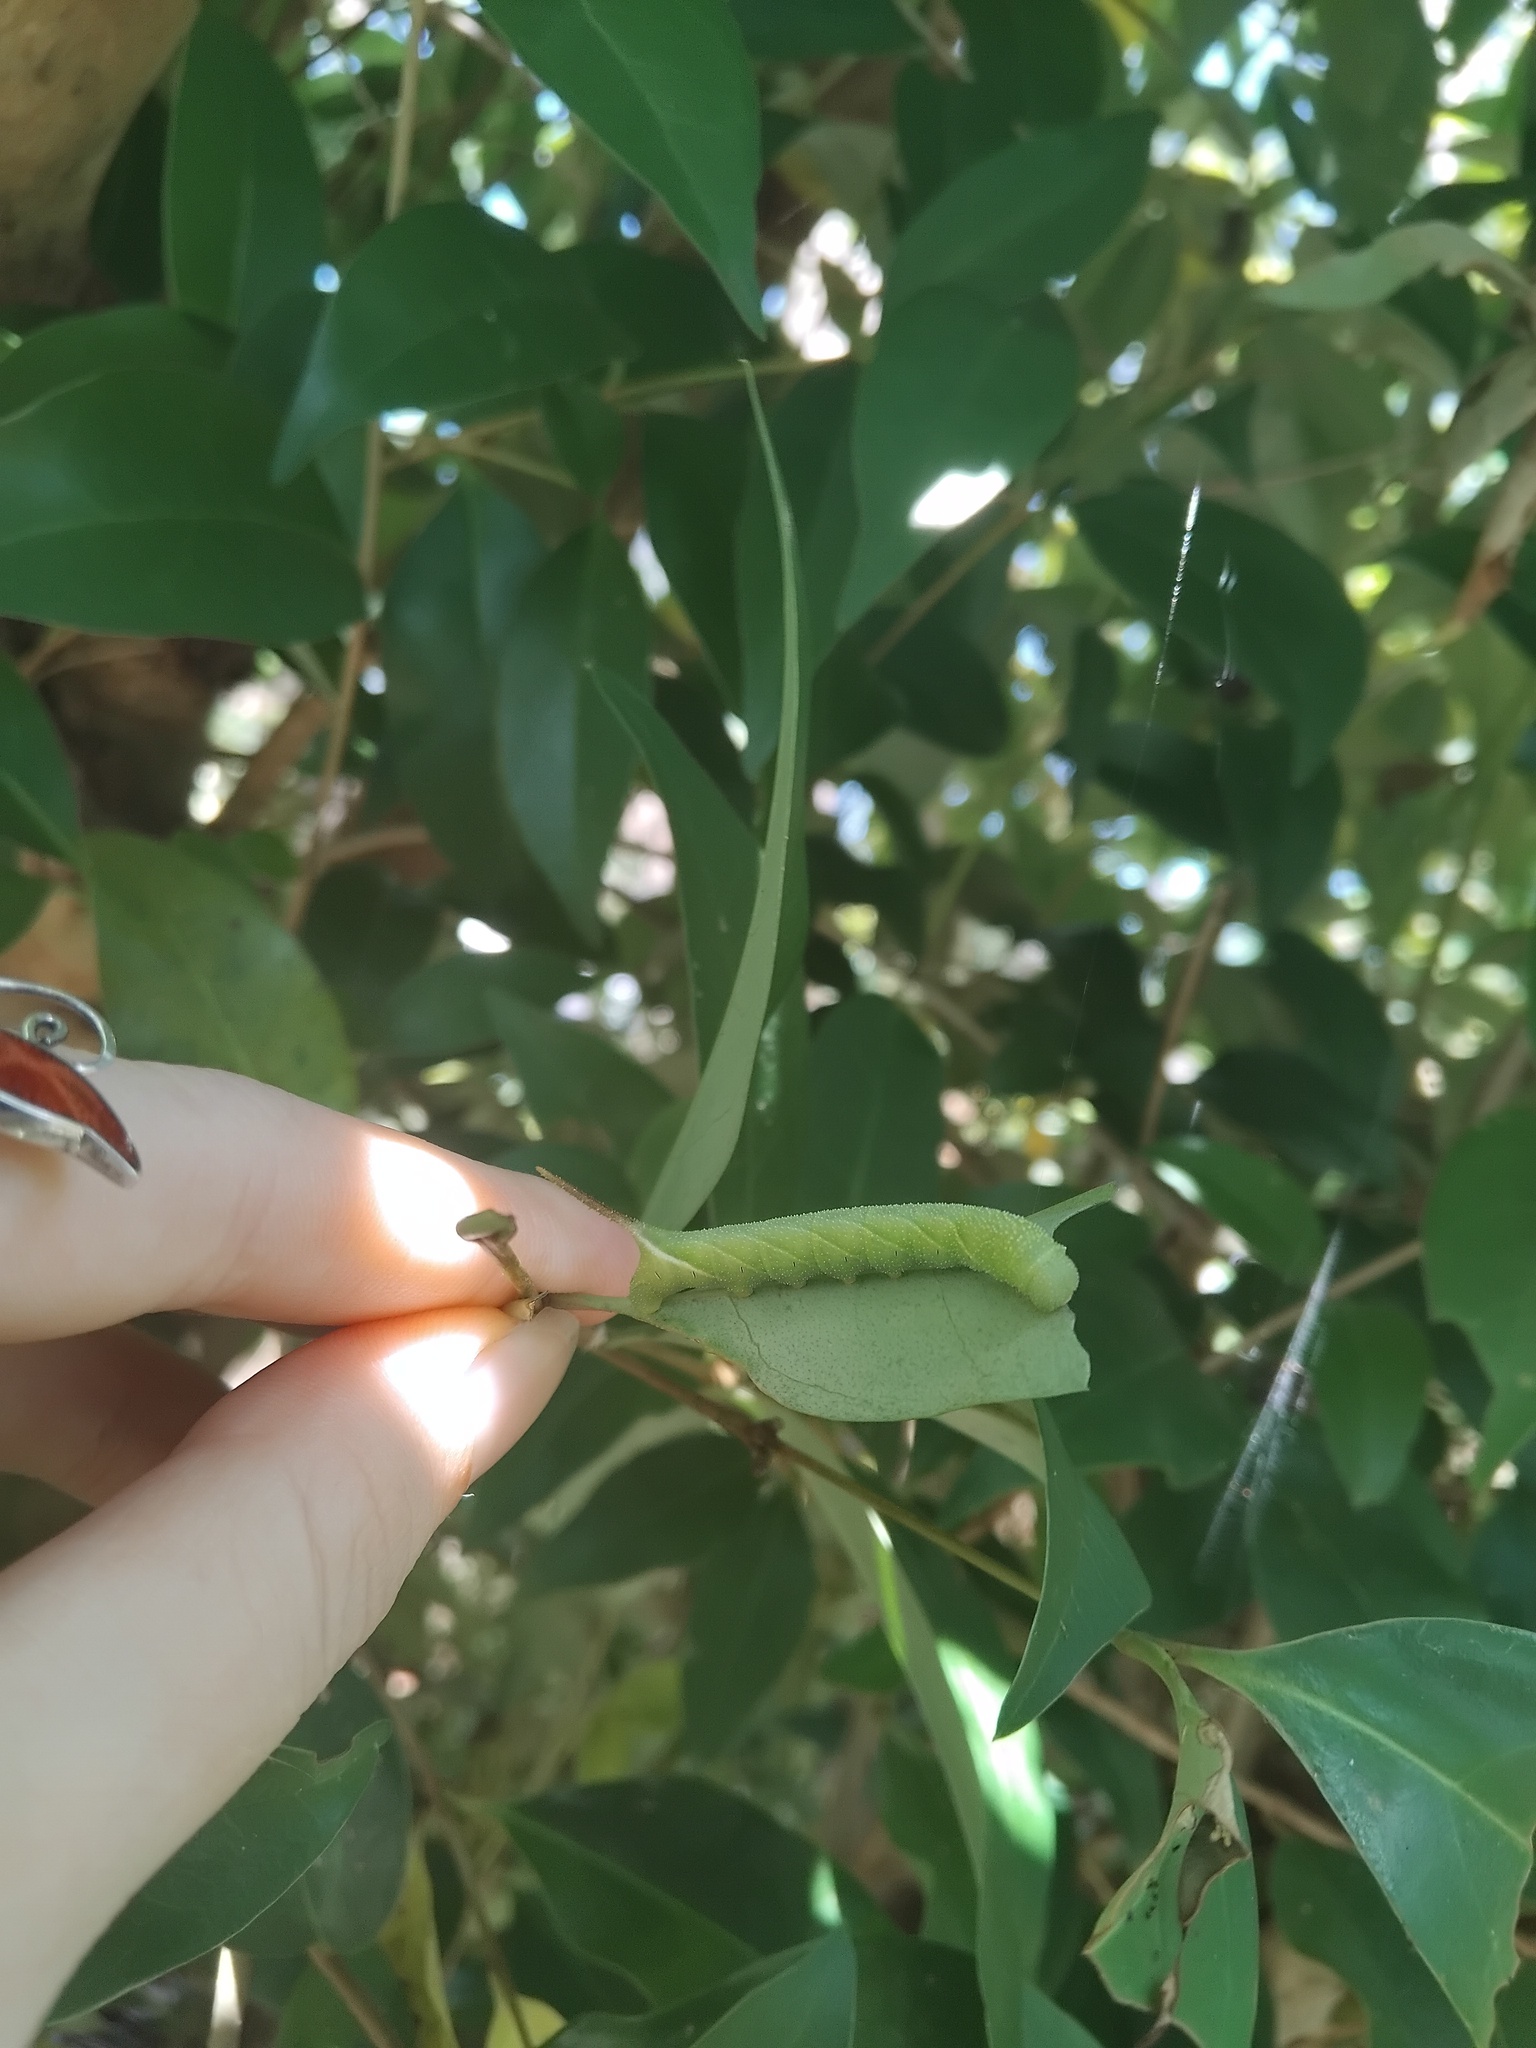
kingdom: Animalia
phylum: Arthropoda
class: Insecta
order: Lepidoptera
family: Sphingidae
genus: Psilogramma
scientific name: Psilogramma casuarinae
